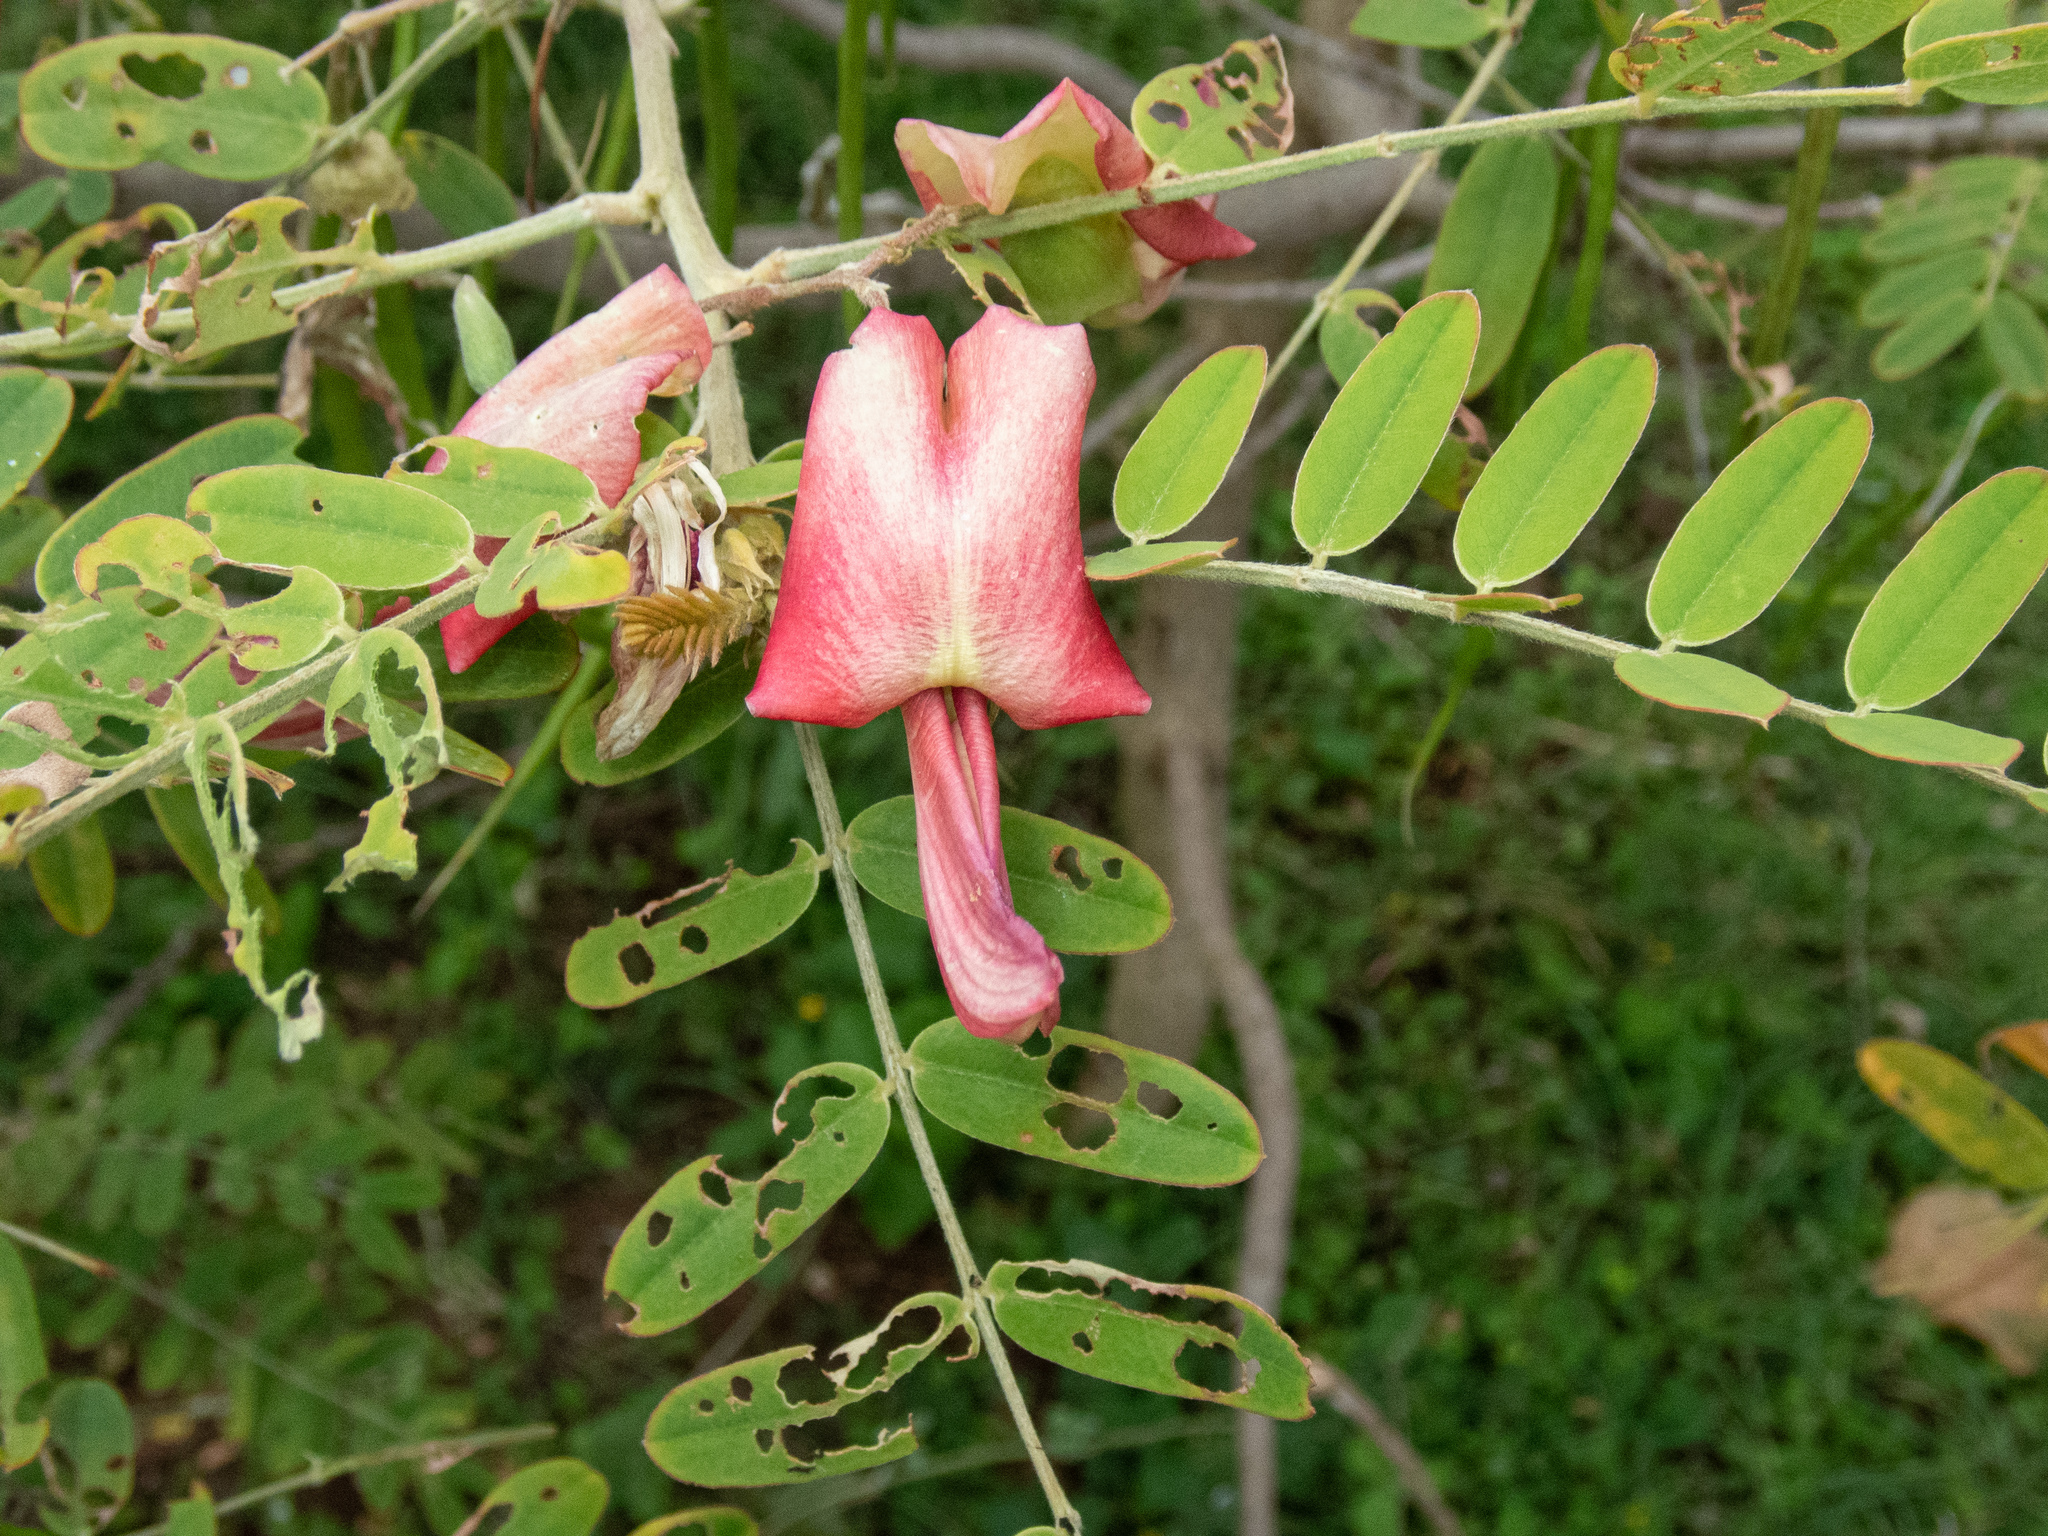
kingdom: Plantae
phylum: Tracheophyta
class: Magnoliopsida
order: Fabales
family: Fabaceae
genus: Sesbania
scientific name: Sesbania tomentosa
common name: `ohai
